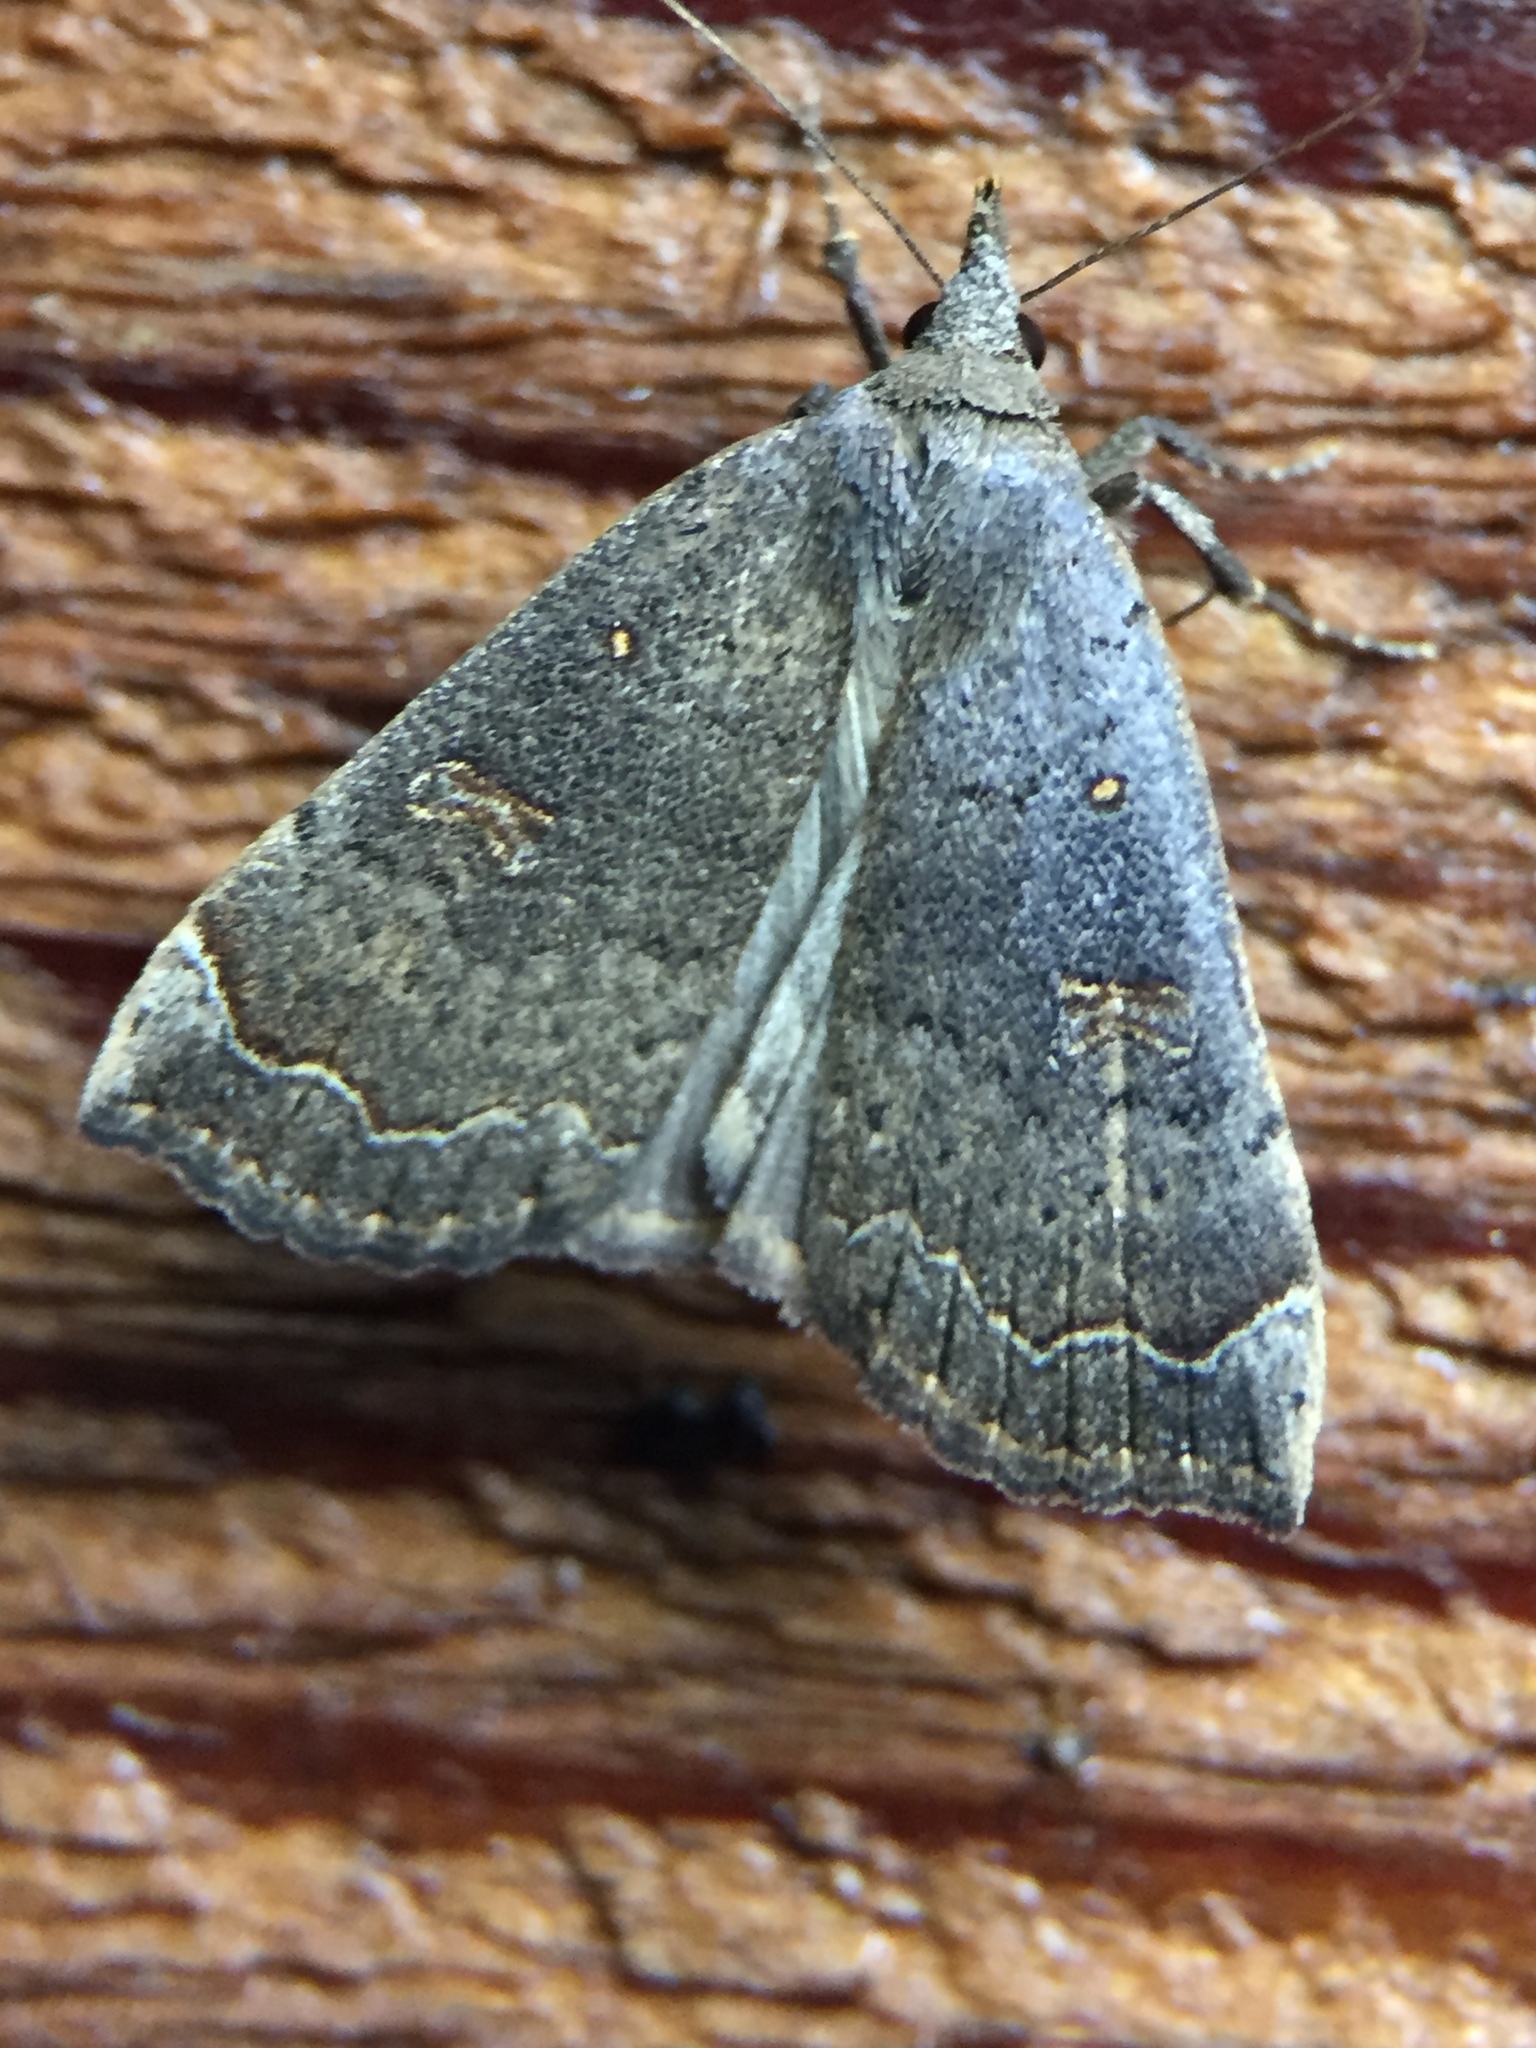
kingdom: Animalia
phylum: Arthropoda
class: Insecta
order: Lepidoptera
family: Erebidae
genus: Rhapsa
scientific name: Rhapsa scotosialis
